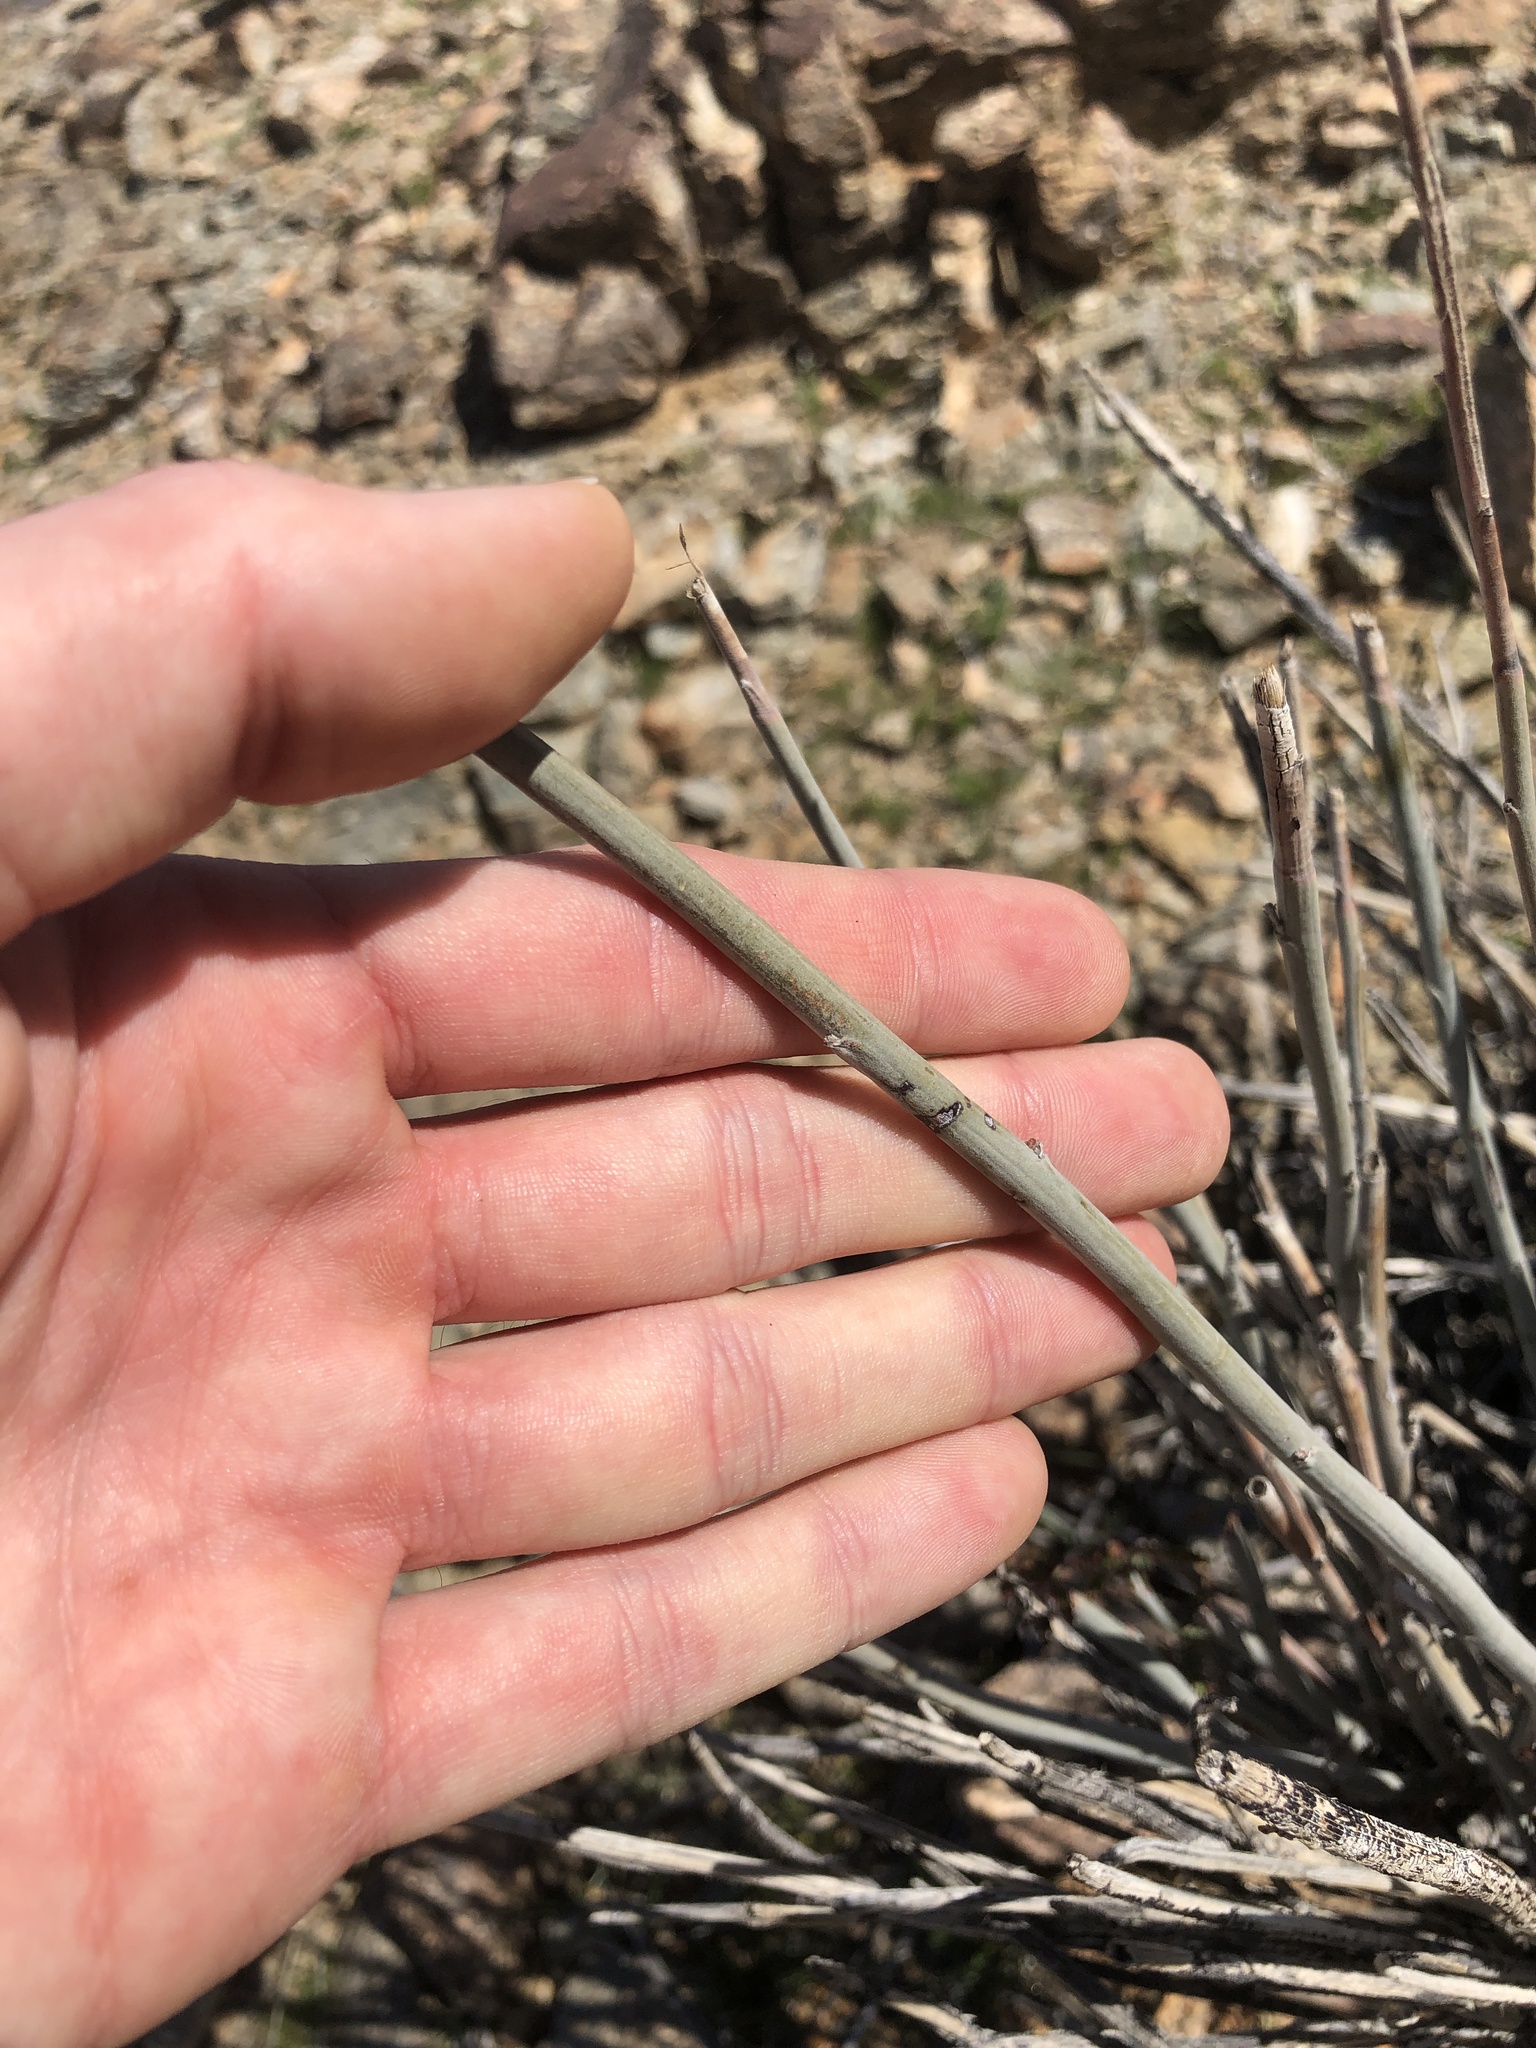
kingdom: Plantae
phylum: Tracheophyta
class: Magnoliopsida
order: Fabales
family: Fabaceae
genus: Hoffmannseggia
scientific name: Hoffmannseggia microphylla
